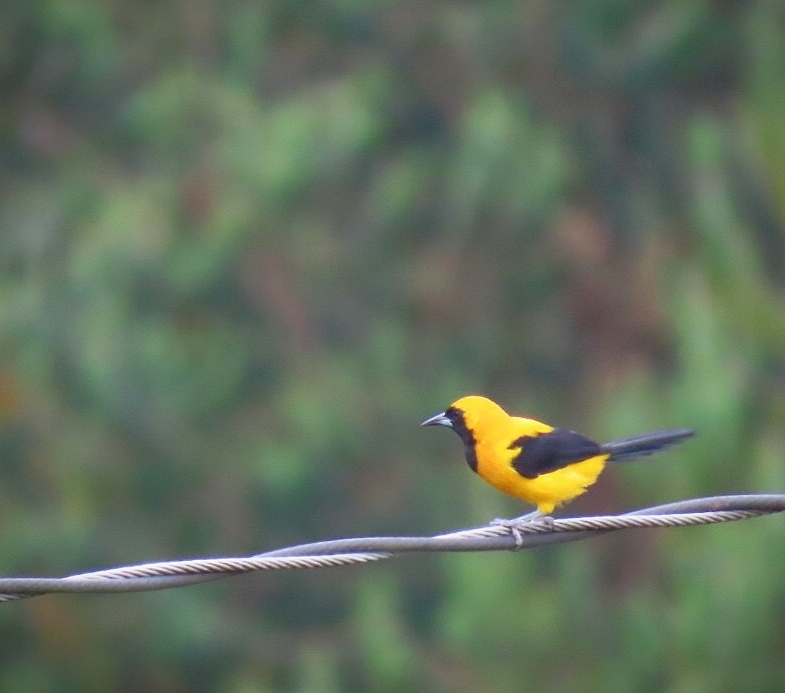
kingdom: Animalia
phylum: Chordata
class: Aves
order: Passeriformes
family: Icteridae
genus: Icterus
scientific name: Icterus chrysater
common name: Yellow-backed oriole
